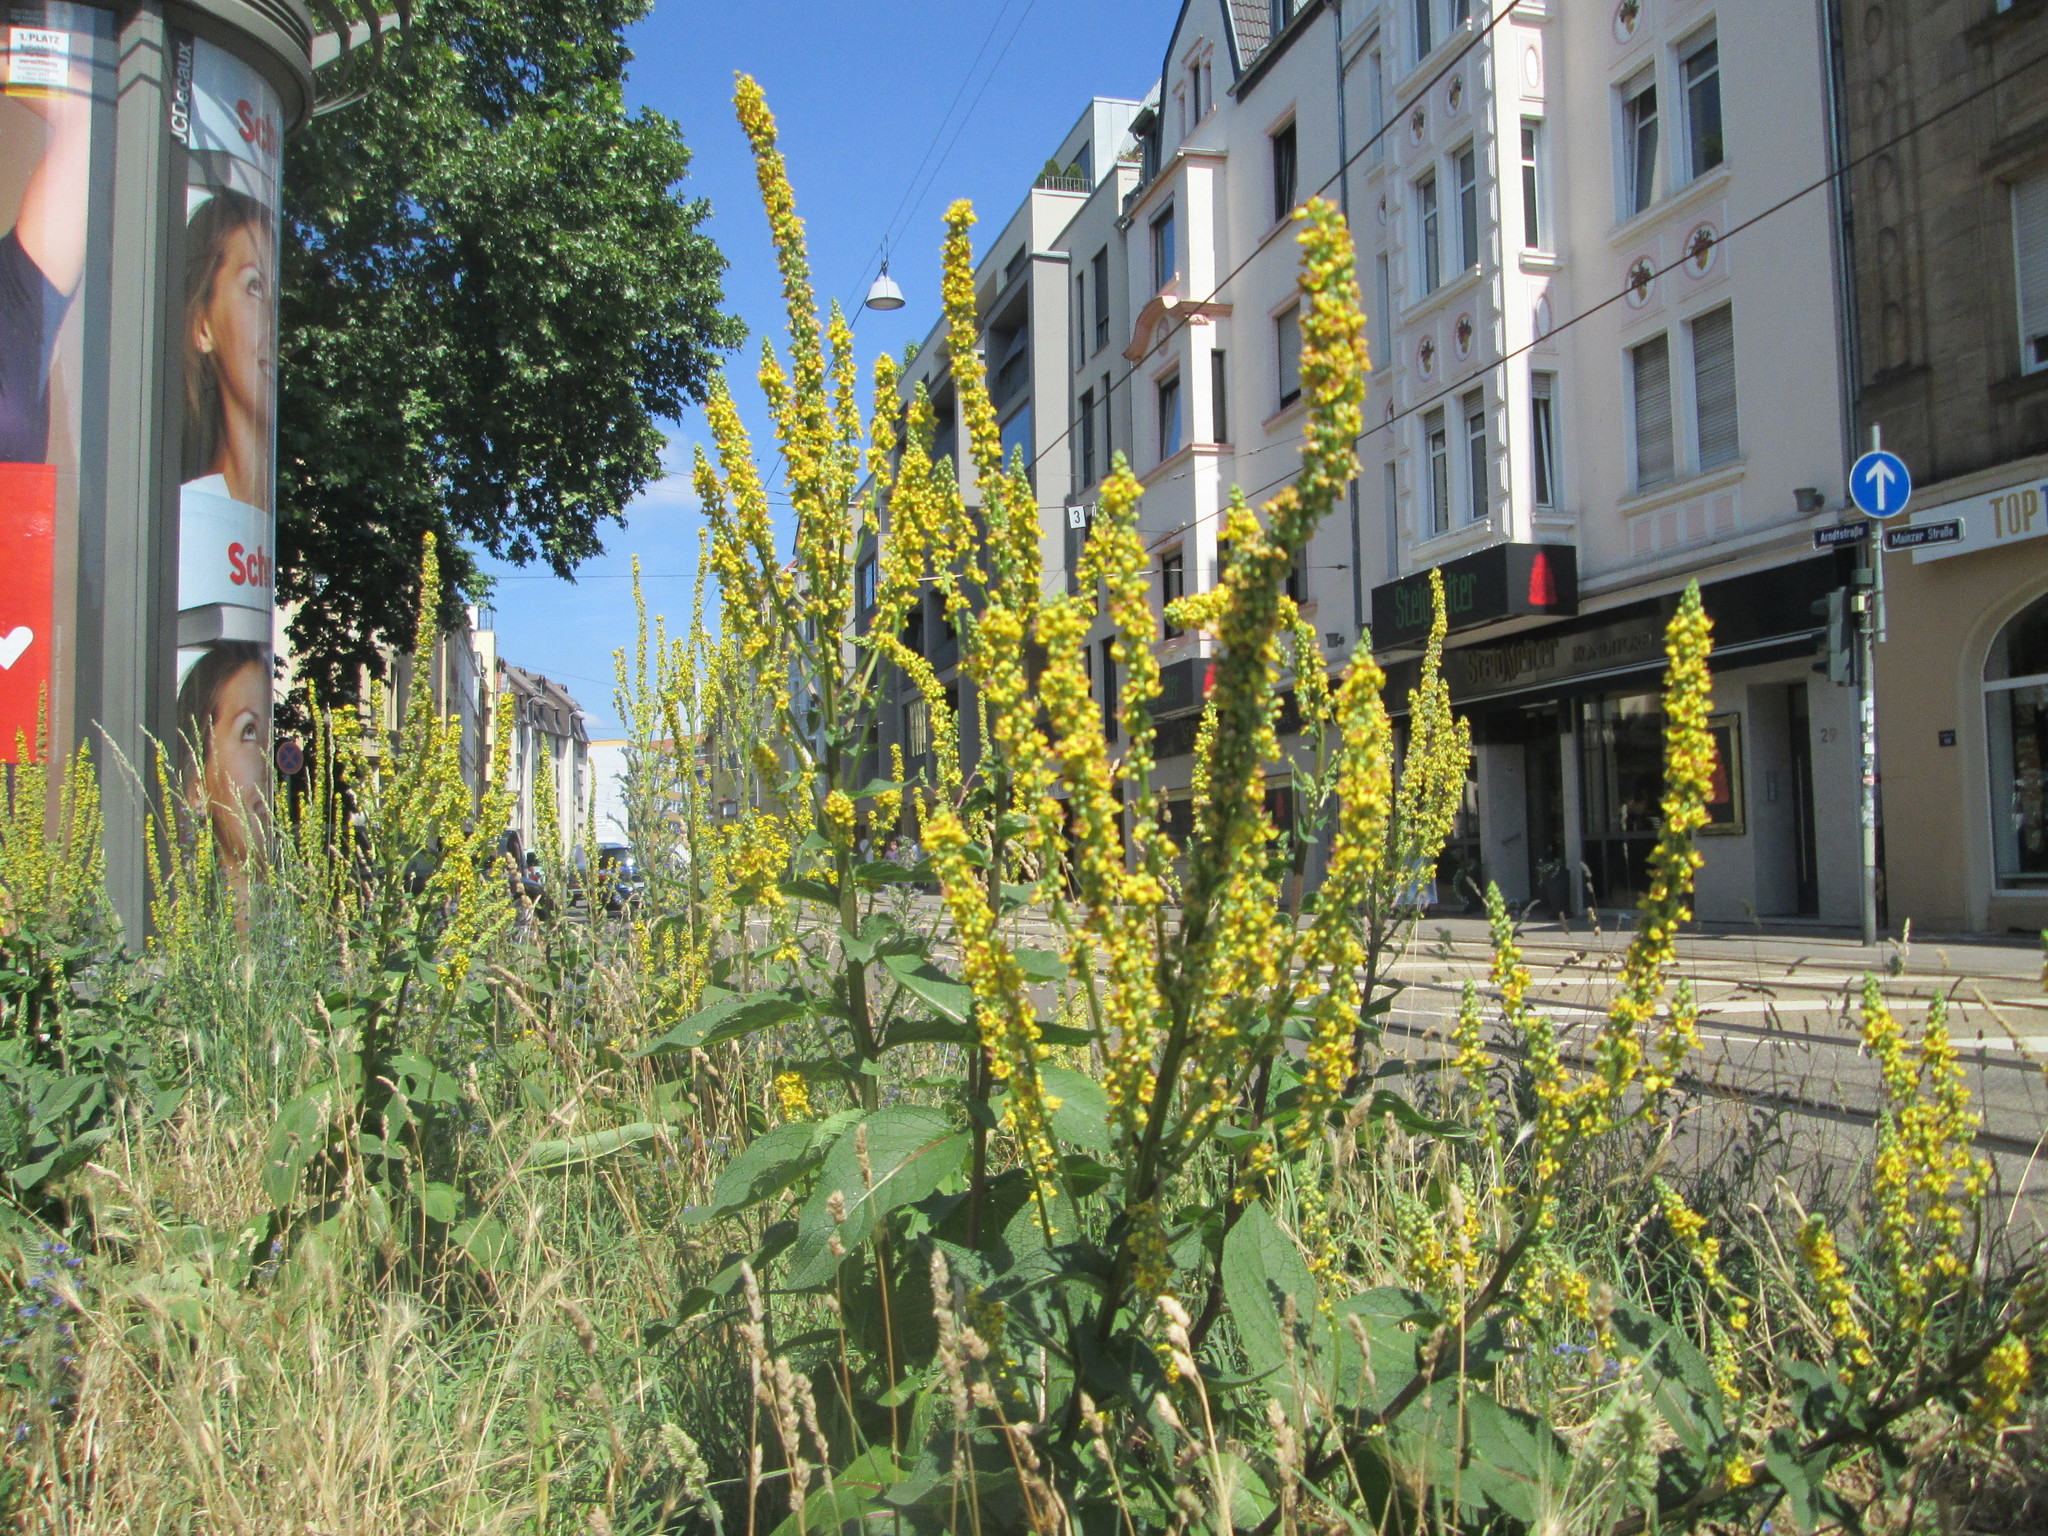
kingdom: Plantae
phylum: Tracheophyta
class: Magnoliopsida
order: Lamiales
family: Scrophulariaceae
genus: Verbascum
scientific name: Verbascum nigrum
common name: Dark mullein
